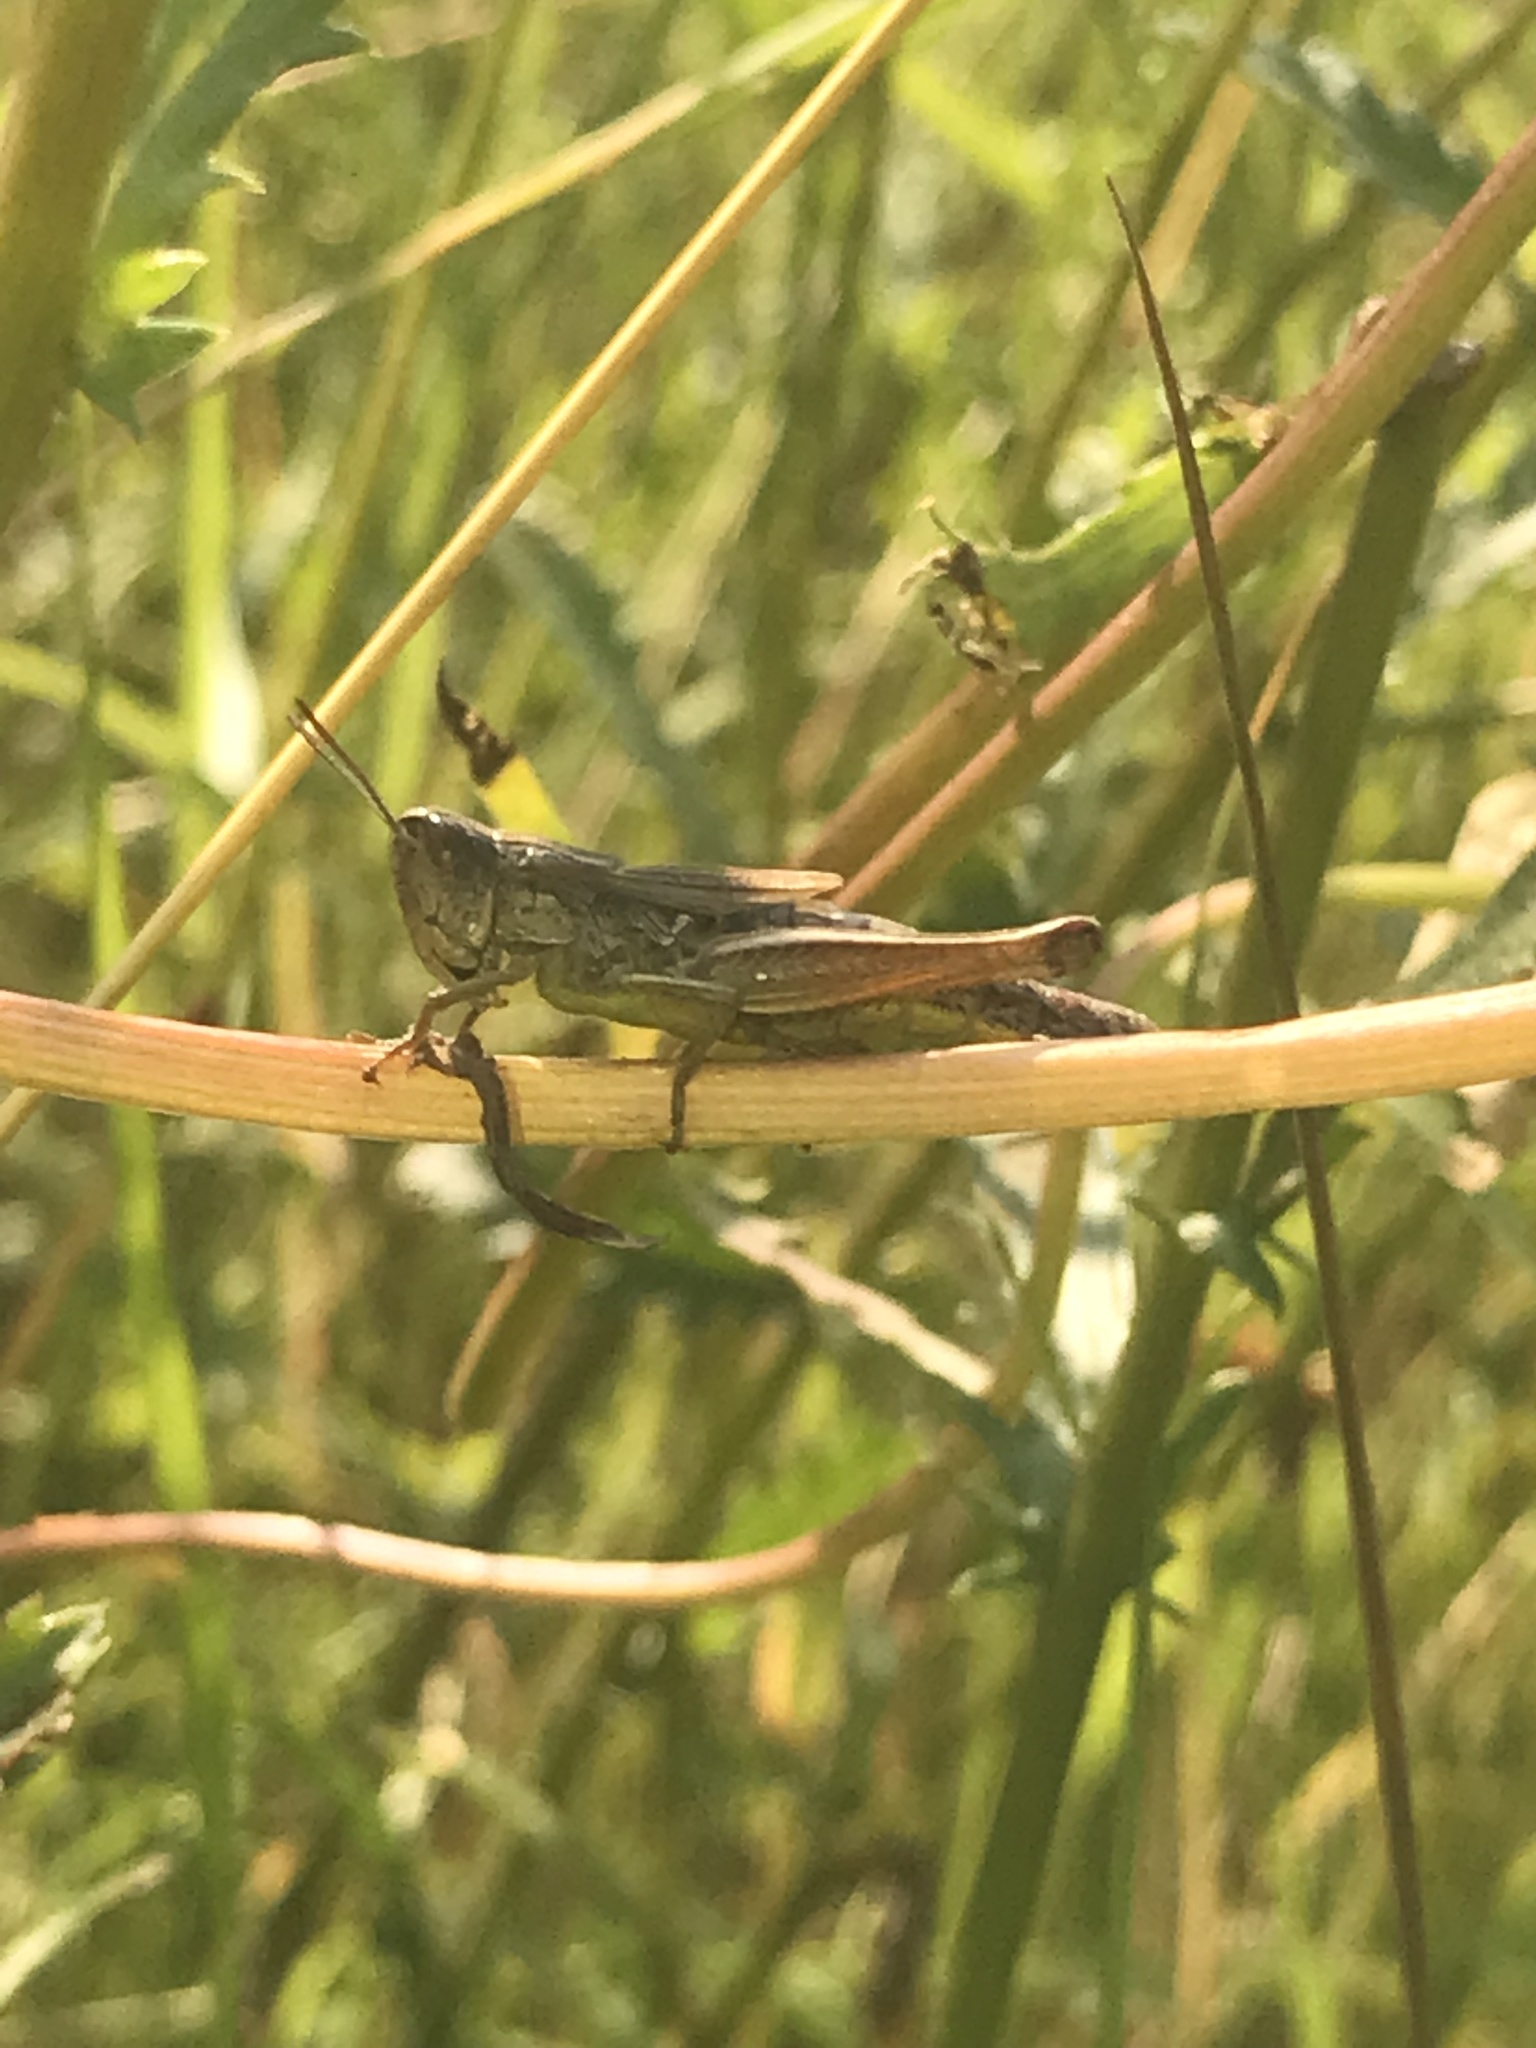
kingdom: Animalia
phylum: Arthropoda
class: Insecta
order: Orthoptera
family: Acrididae
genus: Pseudochorthippus
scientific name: Pseudochorthippus parallelus
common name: Meadow grasshopper
